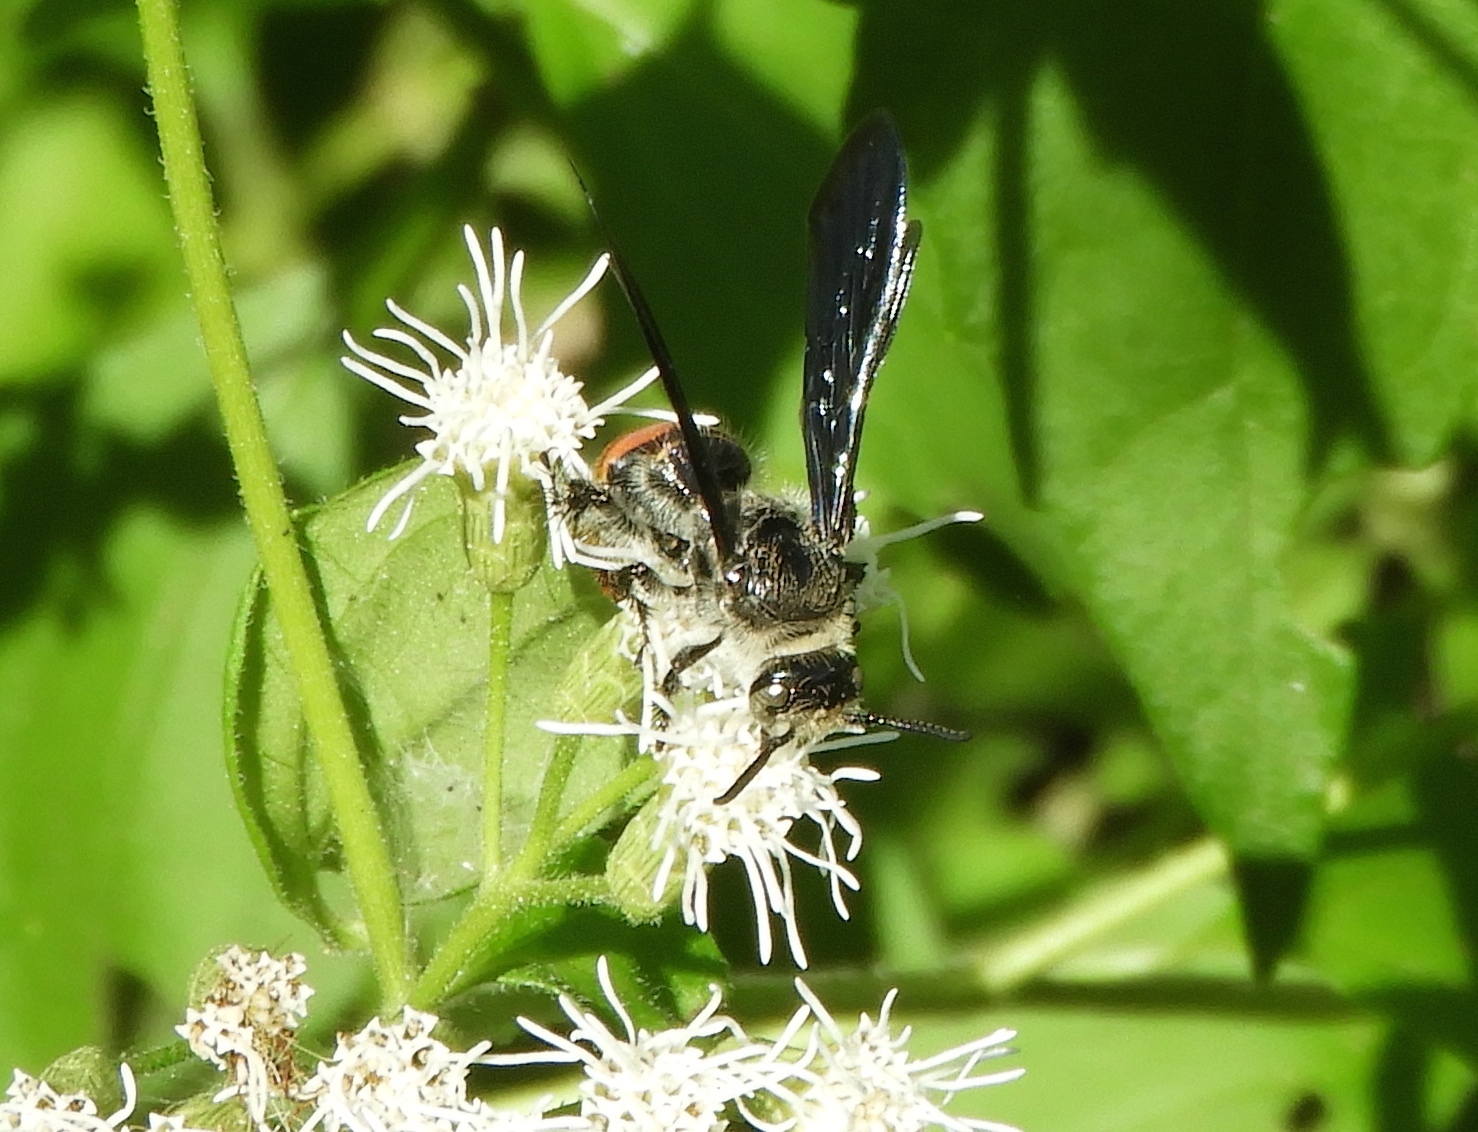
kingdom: Animalia
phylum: Arthropoda
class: Insecta
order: Hymenoptera
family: Scoliidae
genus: Dielis
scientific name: Dielis tolteca
